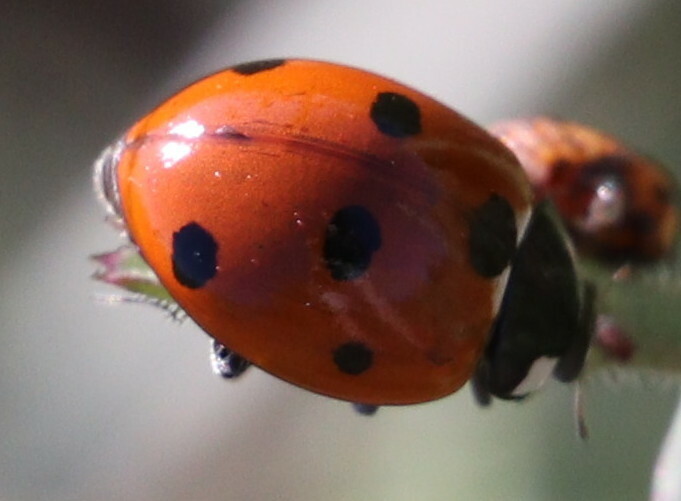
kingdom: Animalia
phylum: Arthropoda
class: Insecta
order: Coleoptera
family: Coccinellidae
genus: Coccinella
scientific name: Coccinella septempunctata
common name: Sevenspotted lady beetle
